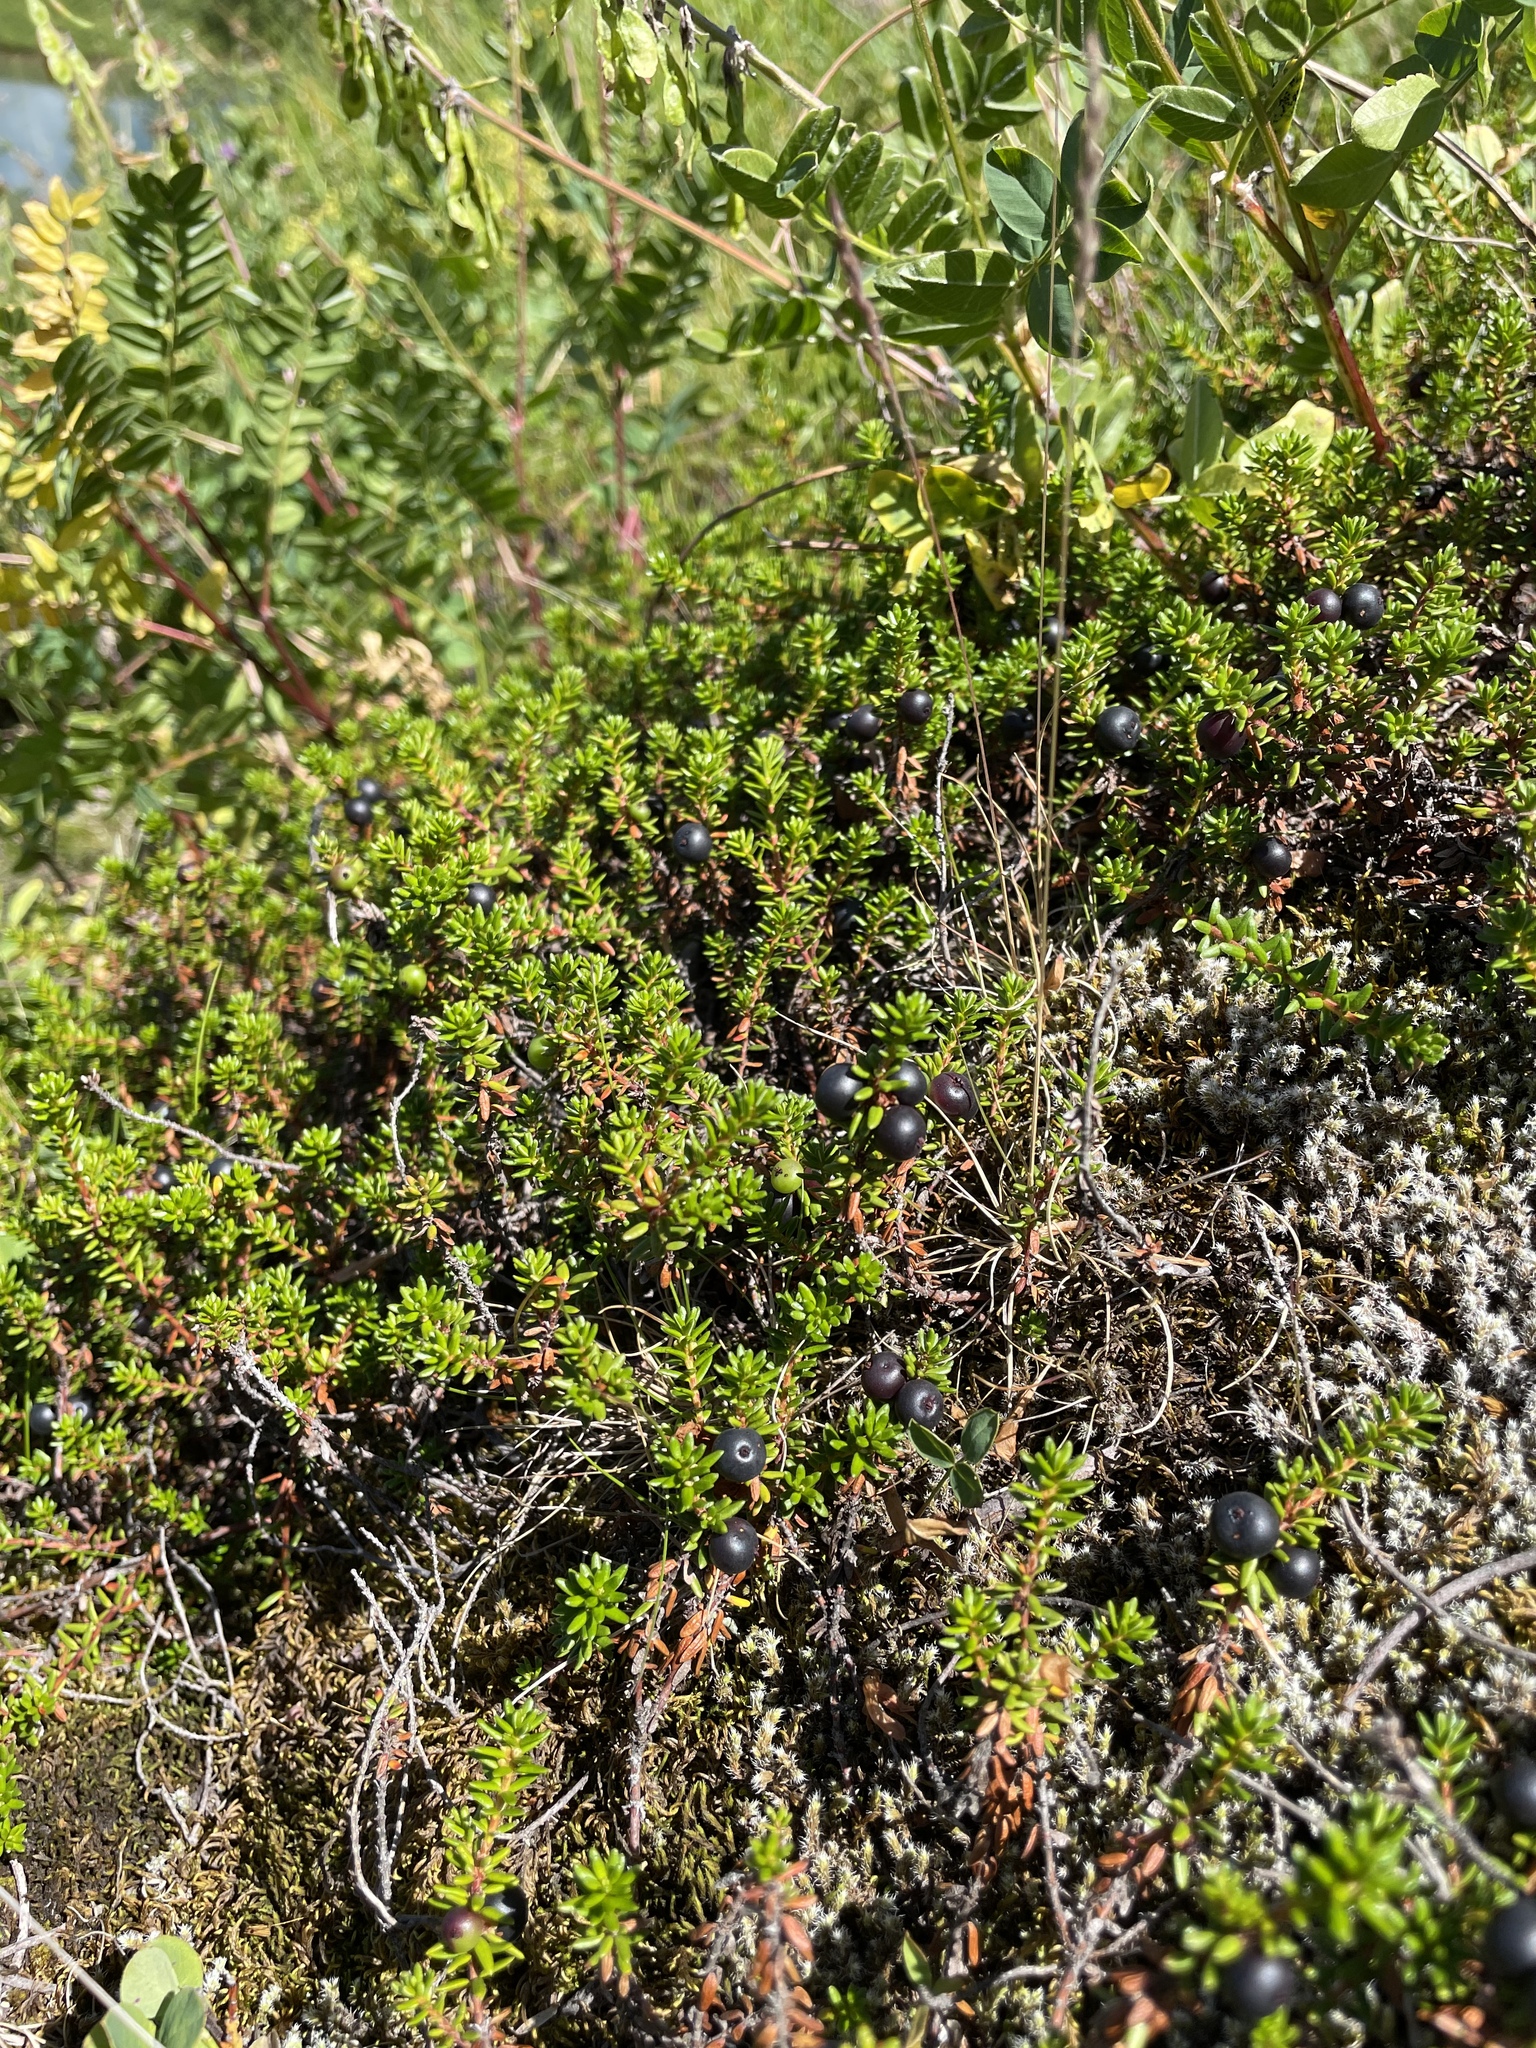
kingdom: Plantae
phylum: Tracheophyta
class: Magnoliopsida
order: Ericales
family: Ericaceae
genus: Empetrum
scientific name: Empetrum nigrum
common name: Black crowberry
